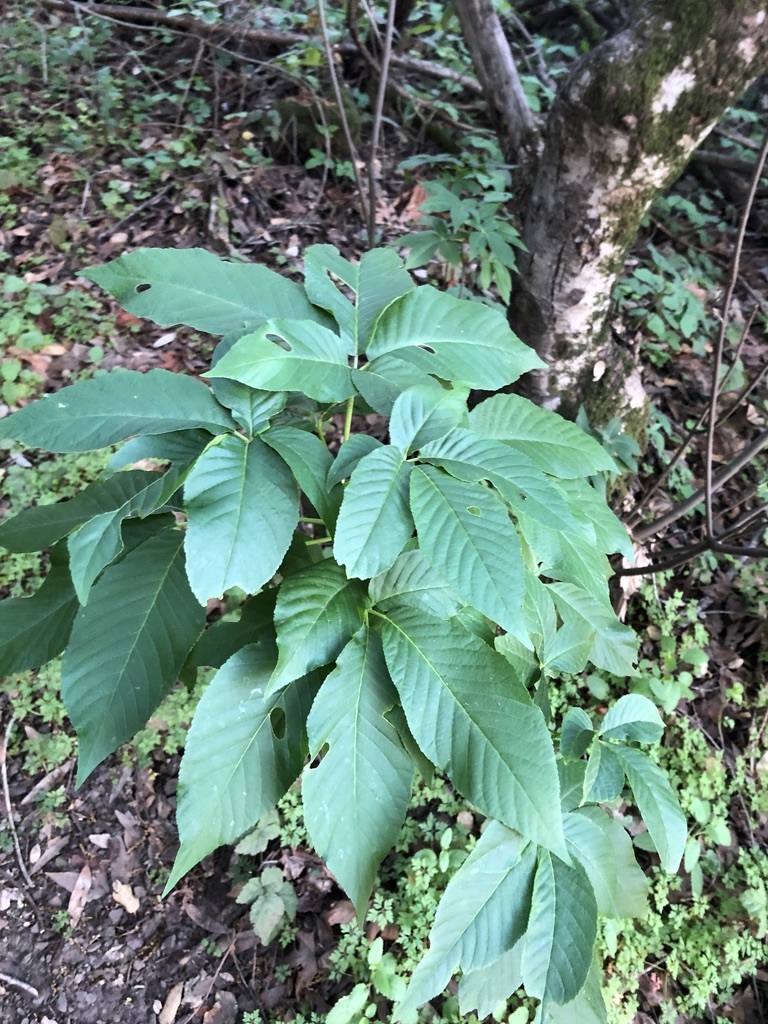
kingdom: Plantae
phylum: Tracheophyta
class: Magnoliopsida
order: Sapindales
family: Sapindaceae
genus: Aesculus
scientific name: Aesculus californica
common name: California buckeye
